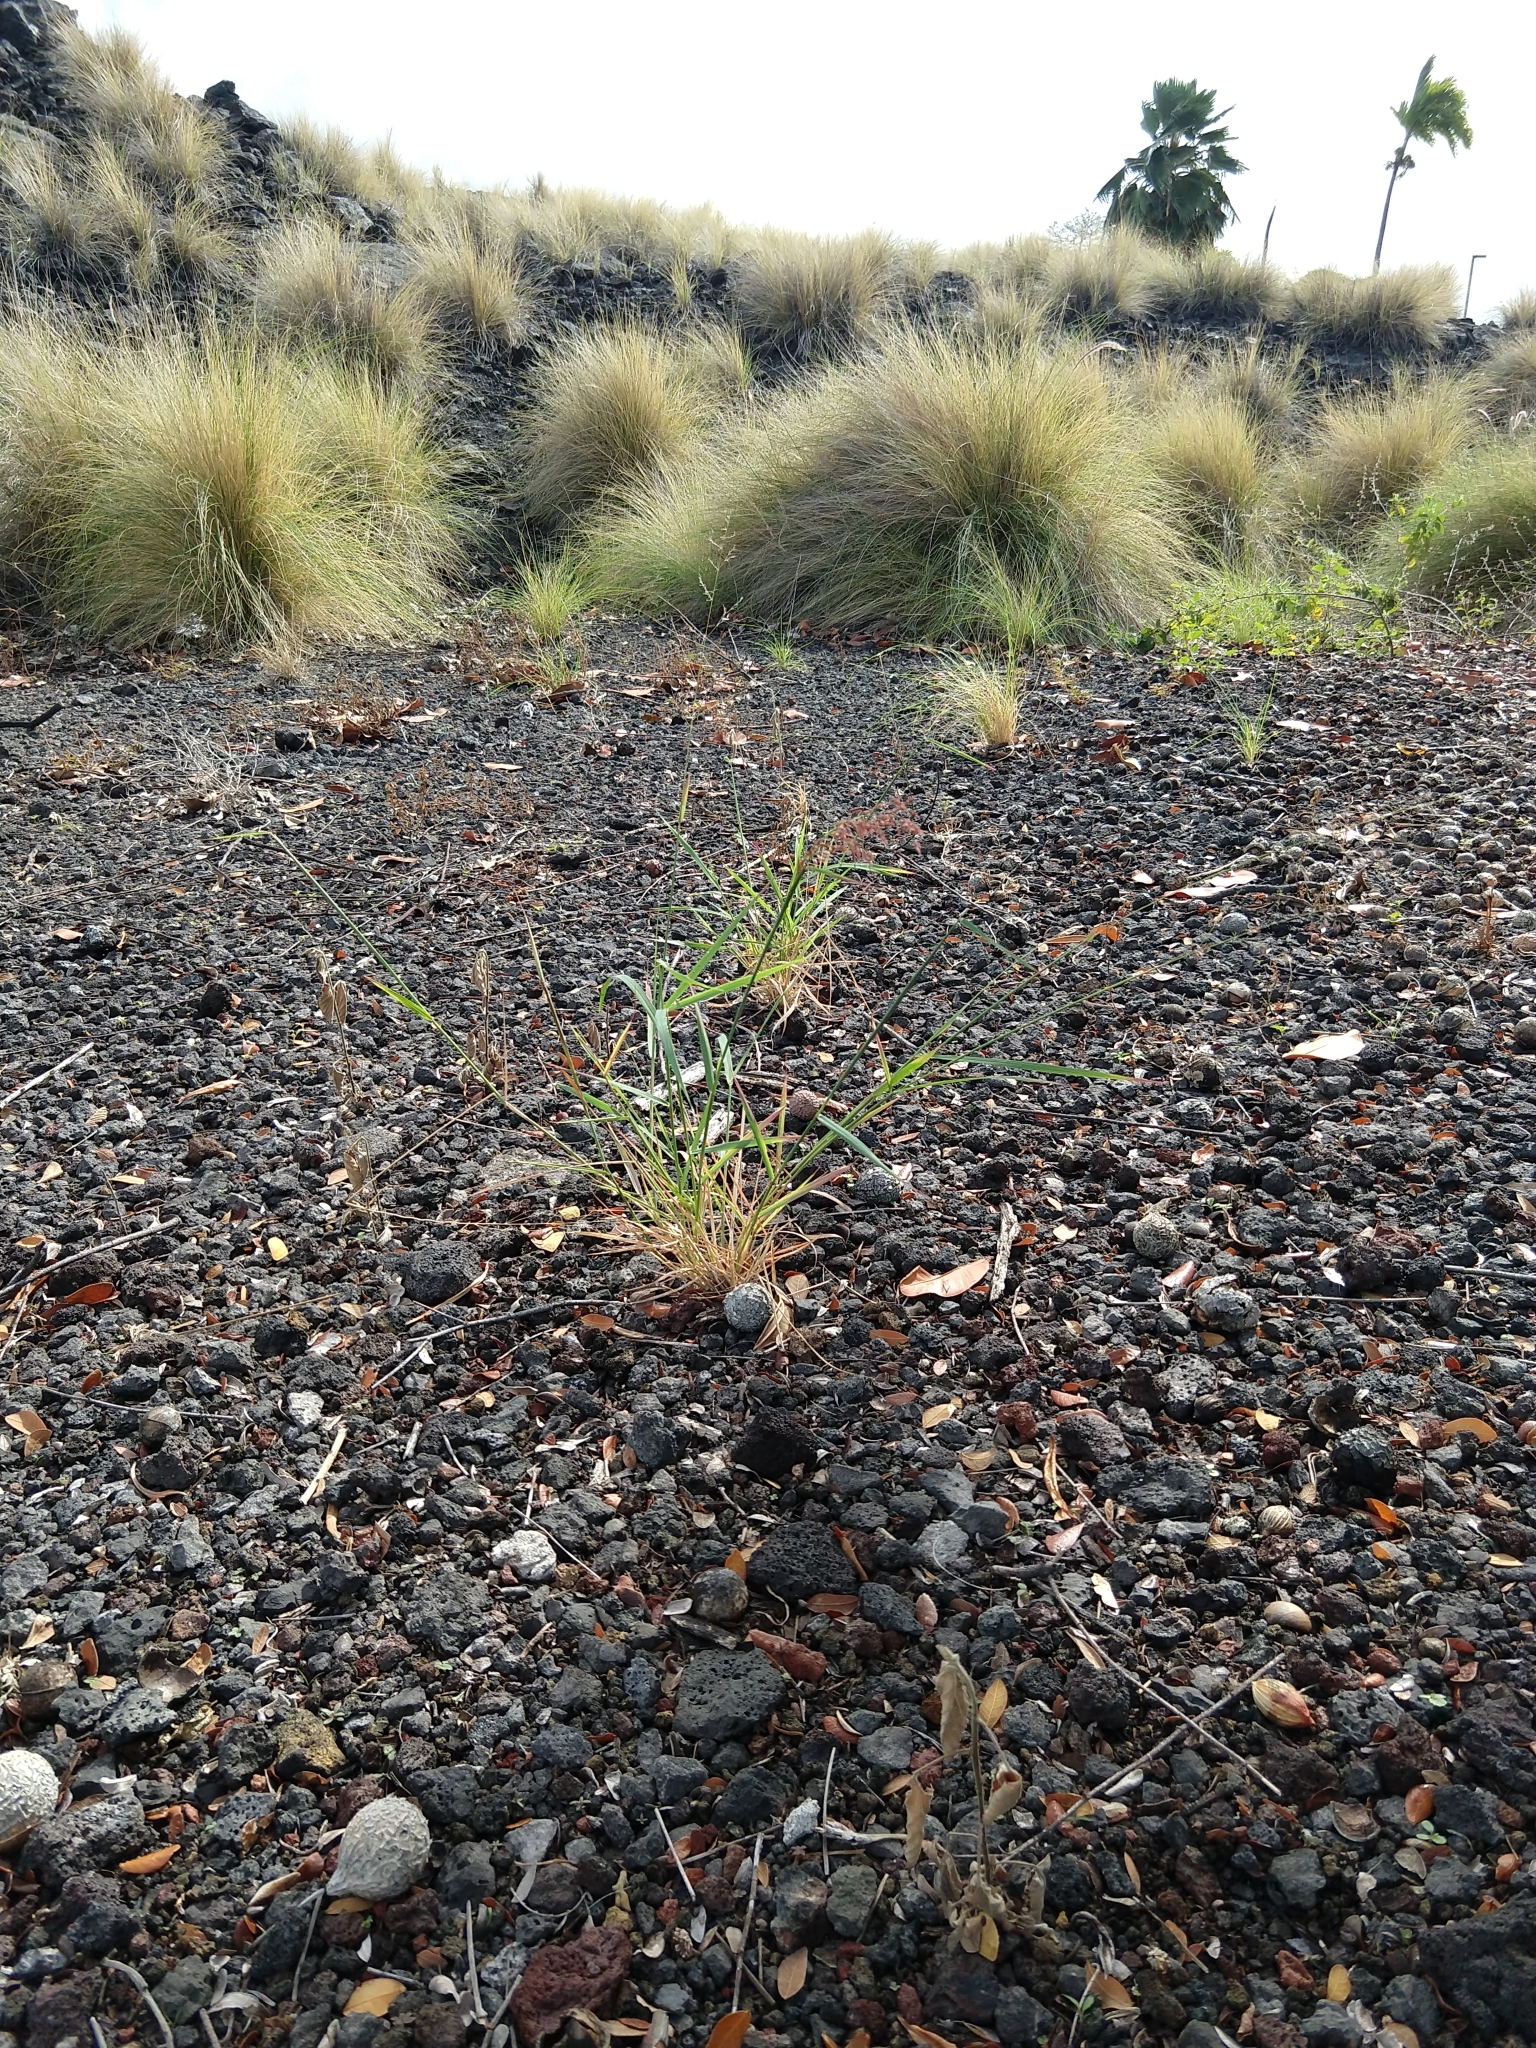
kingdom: Plantae
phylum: Tracheophyta
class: Liliopsida
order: Poales
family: Poaceae
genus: Melinis
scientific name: Melinis repens
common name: Rose natal grass
